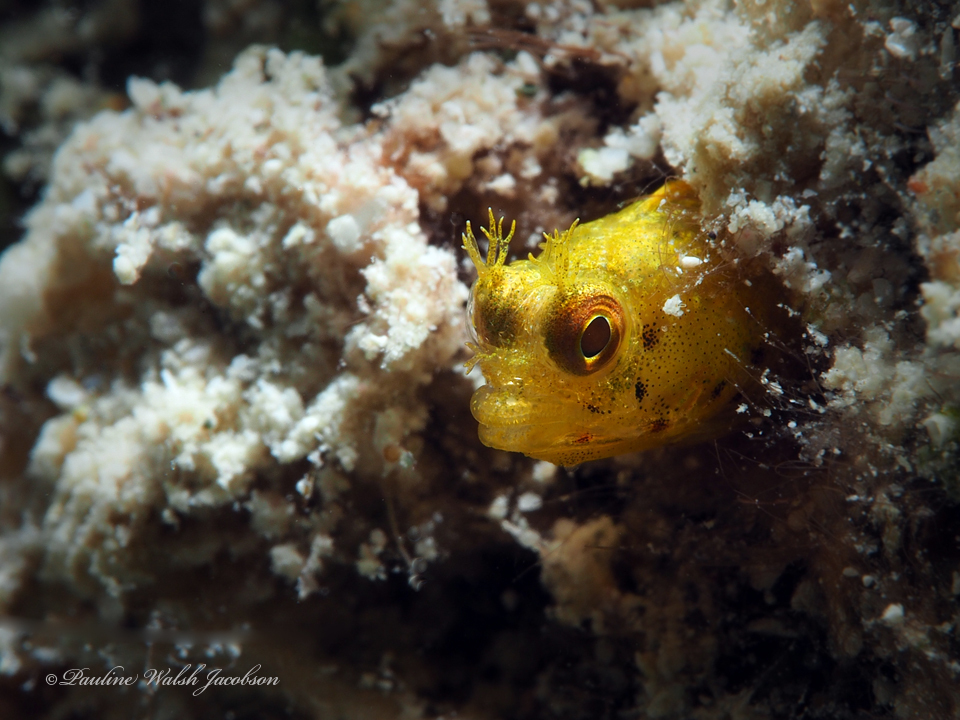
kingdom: Animalia
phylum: Chordata
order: Perciformes
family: Chaenopsidae
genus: Acanthemblemaria
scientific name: Acanthemblemaria aspera
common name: Roughhead blenny
